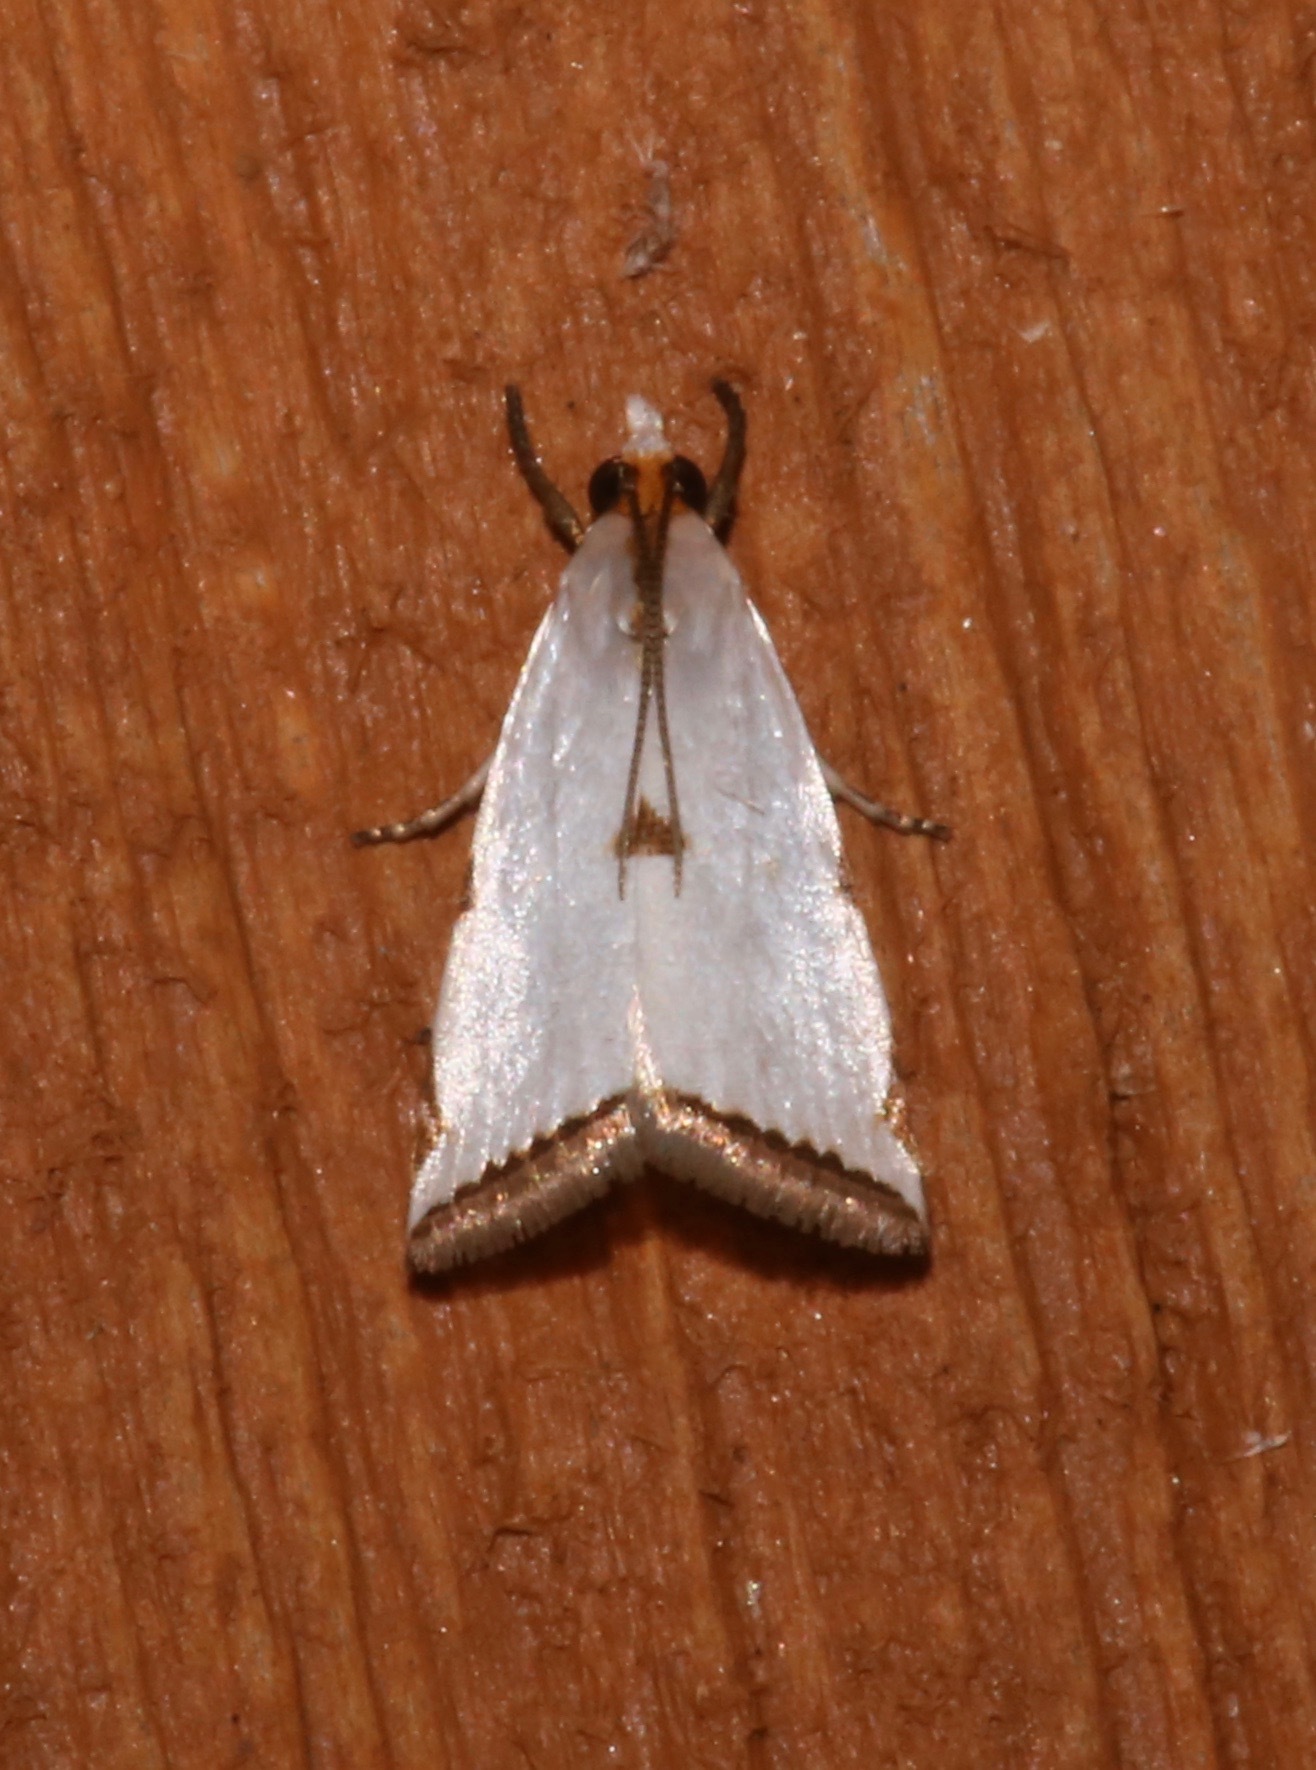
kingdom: Animalia
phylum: Arthropoda
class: Insecta
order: Lepidoptera
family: Crambidae
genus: Argyria
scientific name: Argyria nivalis
